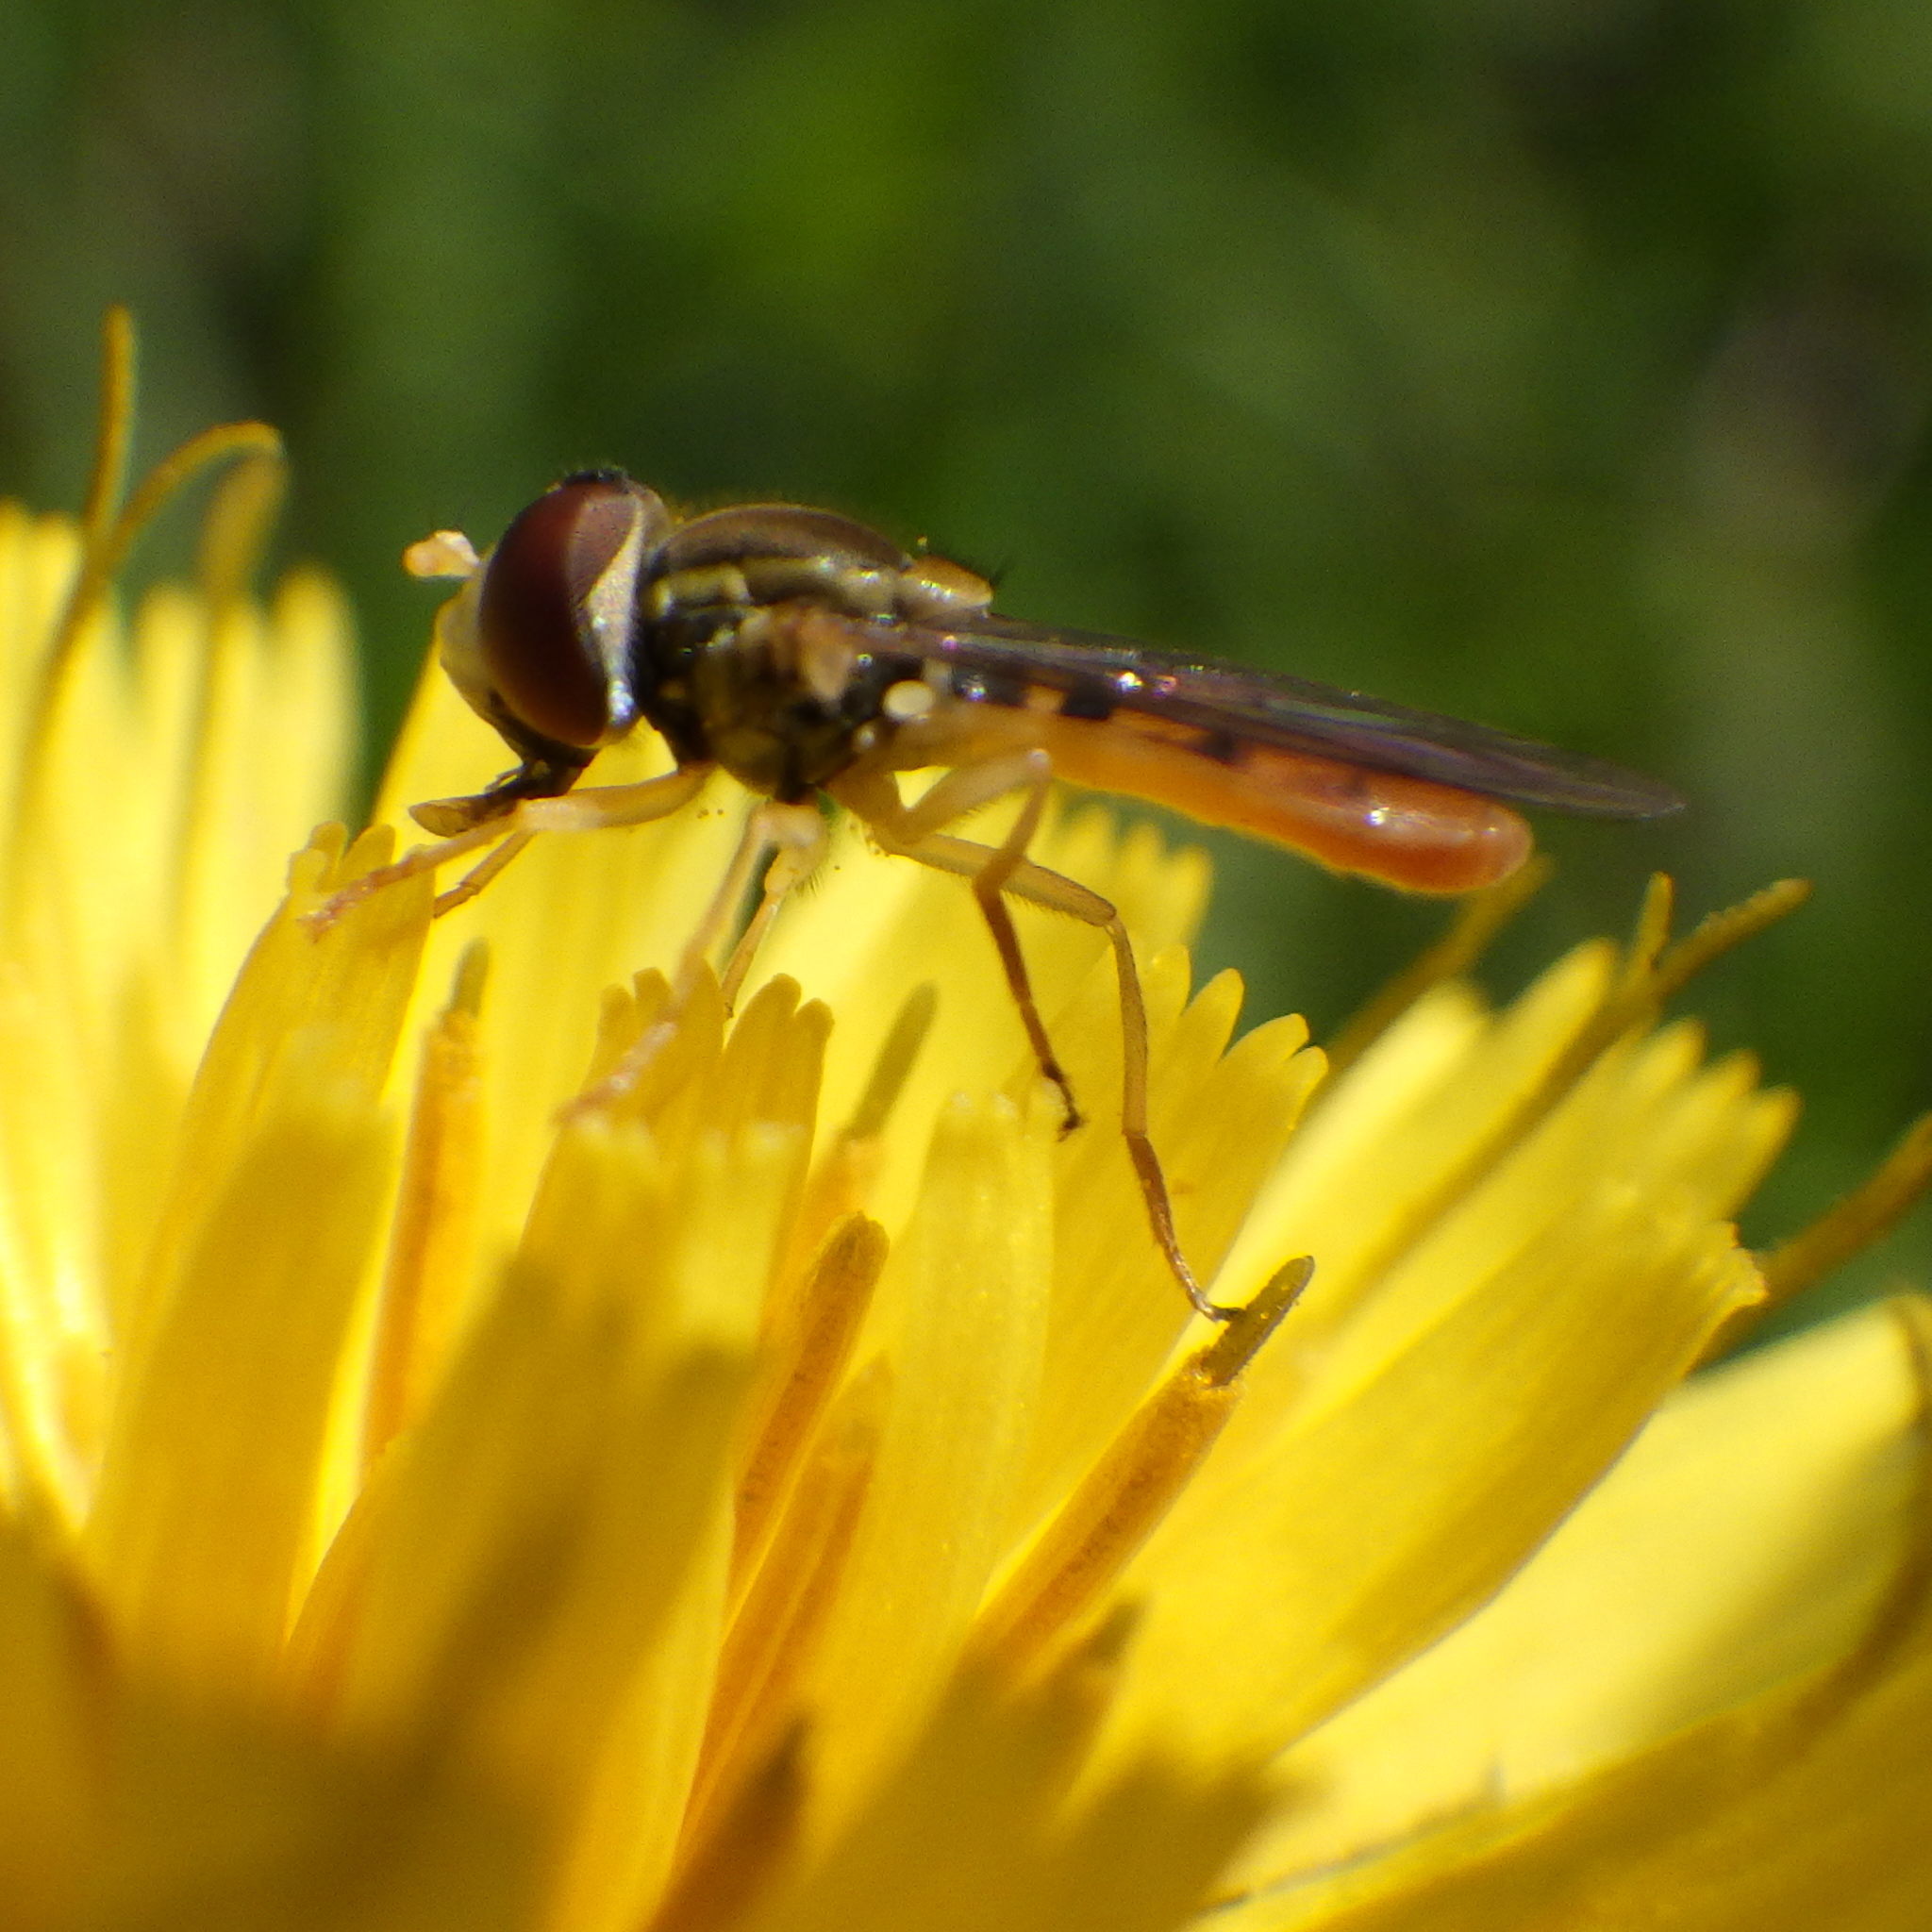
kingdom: Animalia
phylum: Arthropoda
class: Insecta
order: Diptera
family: Syrphidae
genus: Toxomerus
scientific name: Toxomerus marginatus
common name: Syrphid fly
